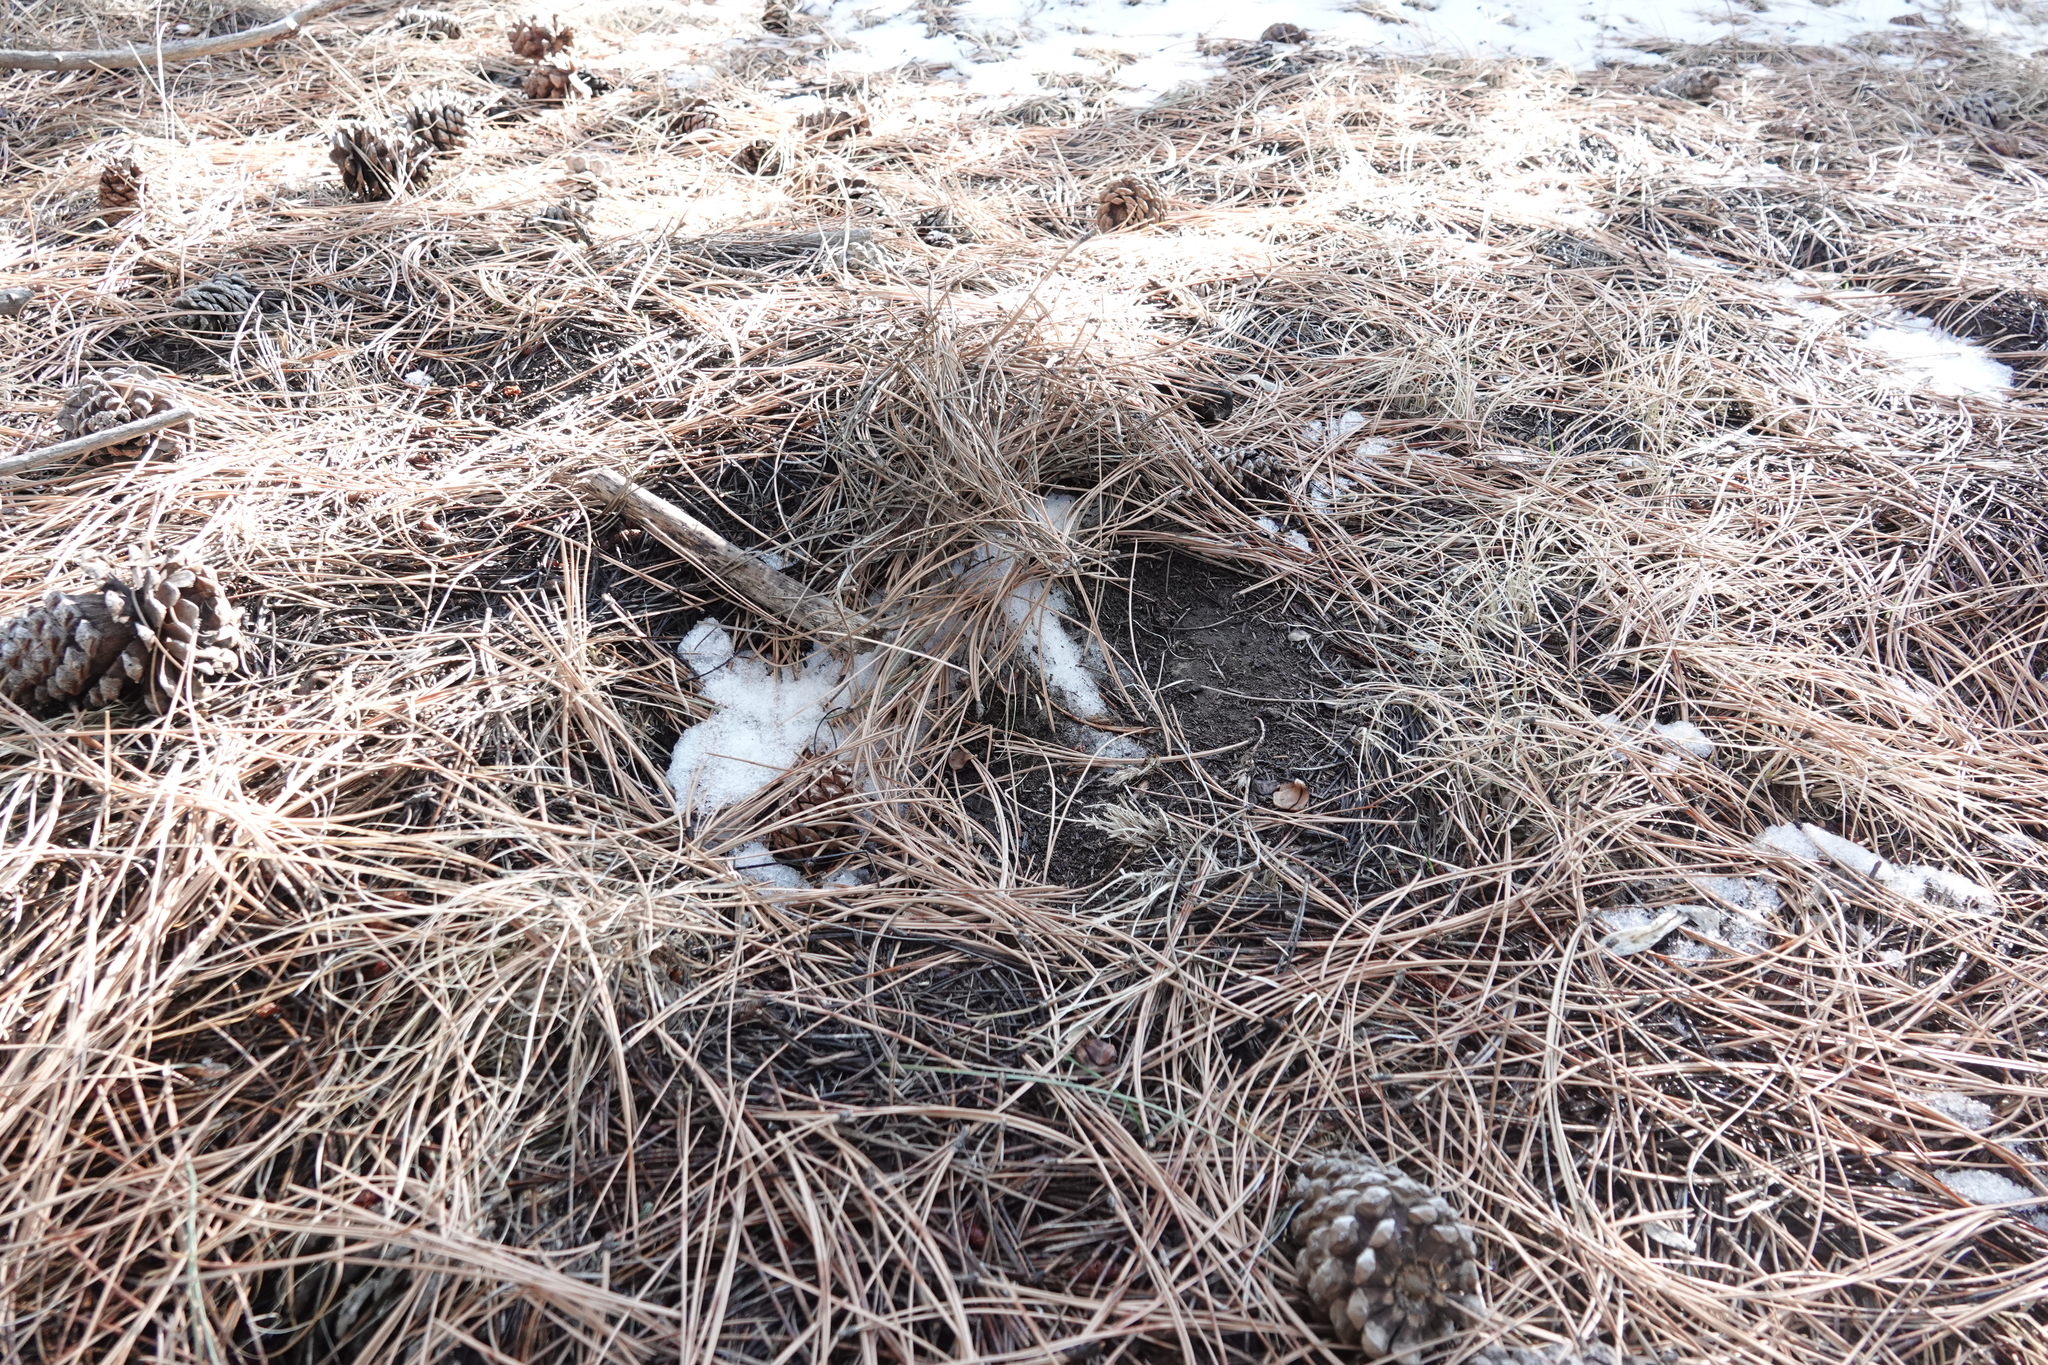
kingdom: Animalia
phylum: Chordata
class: Mammalia
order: Carnivora
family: Felidae
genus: Puma
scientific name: Puma concolor
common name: Puma
